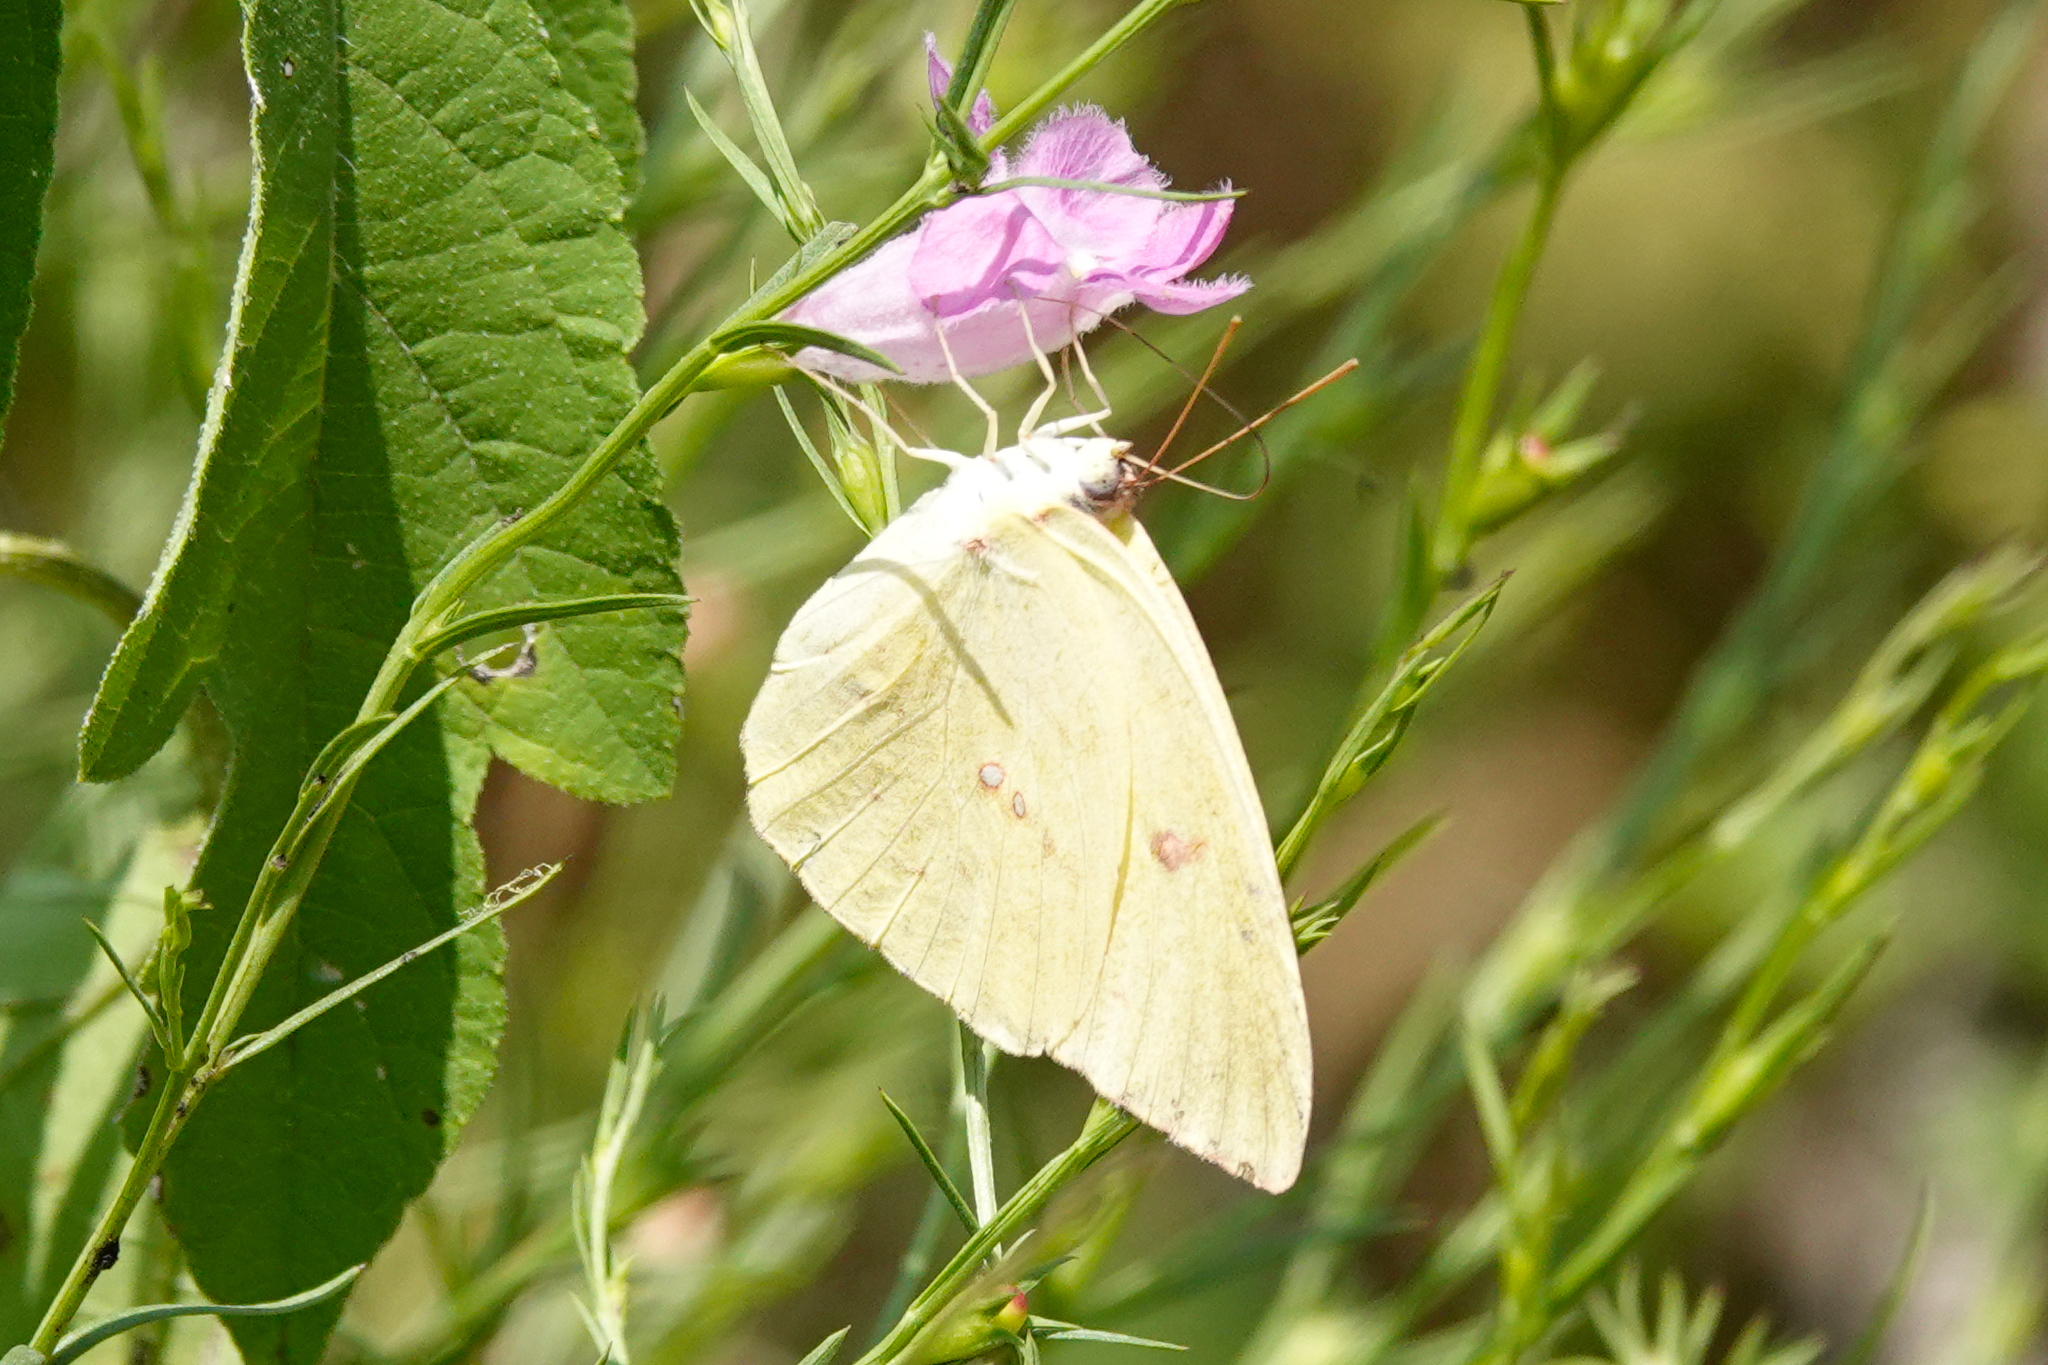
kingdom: Animalia
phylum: Arthropoda
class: Insecta
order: Lepidoptera
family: Pieridae
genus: Phoebis
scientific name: Phoebis sennae
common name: Cloudless sulphur
